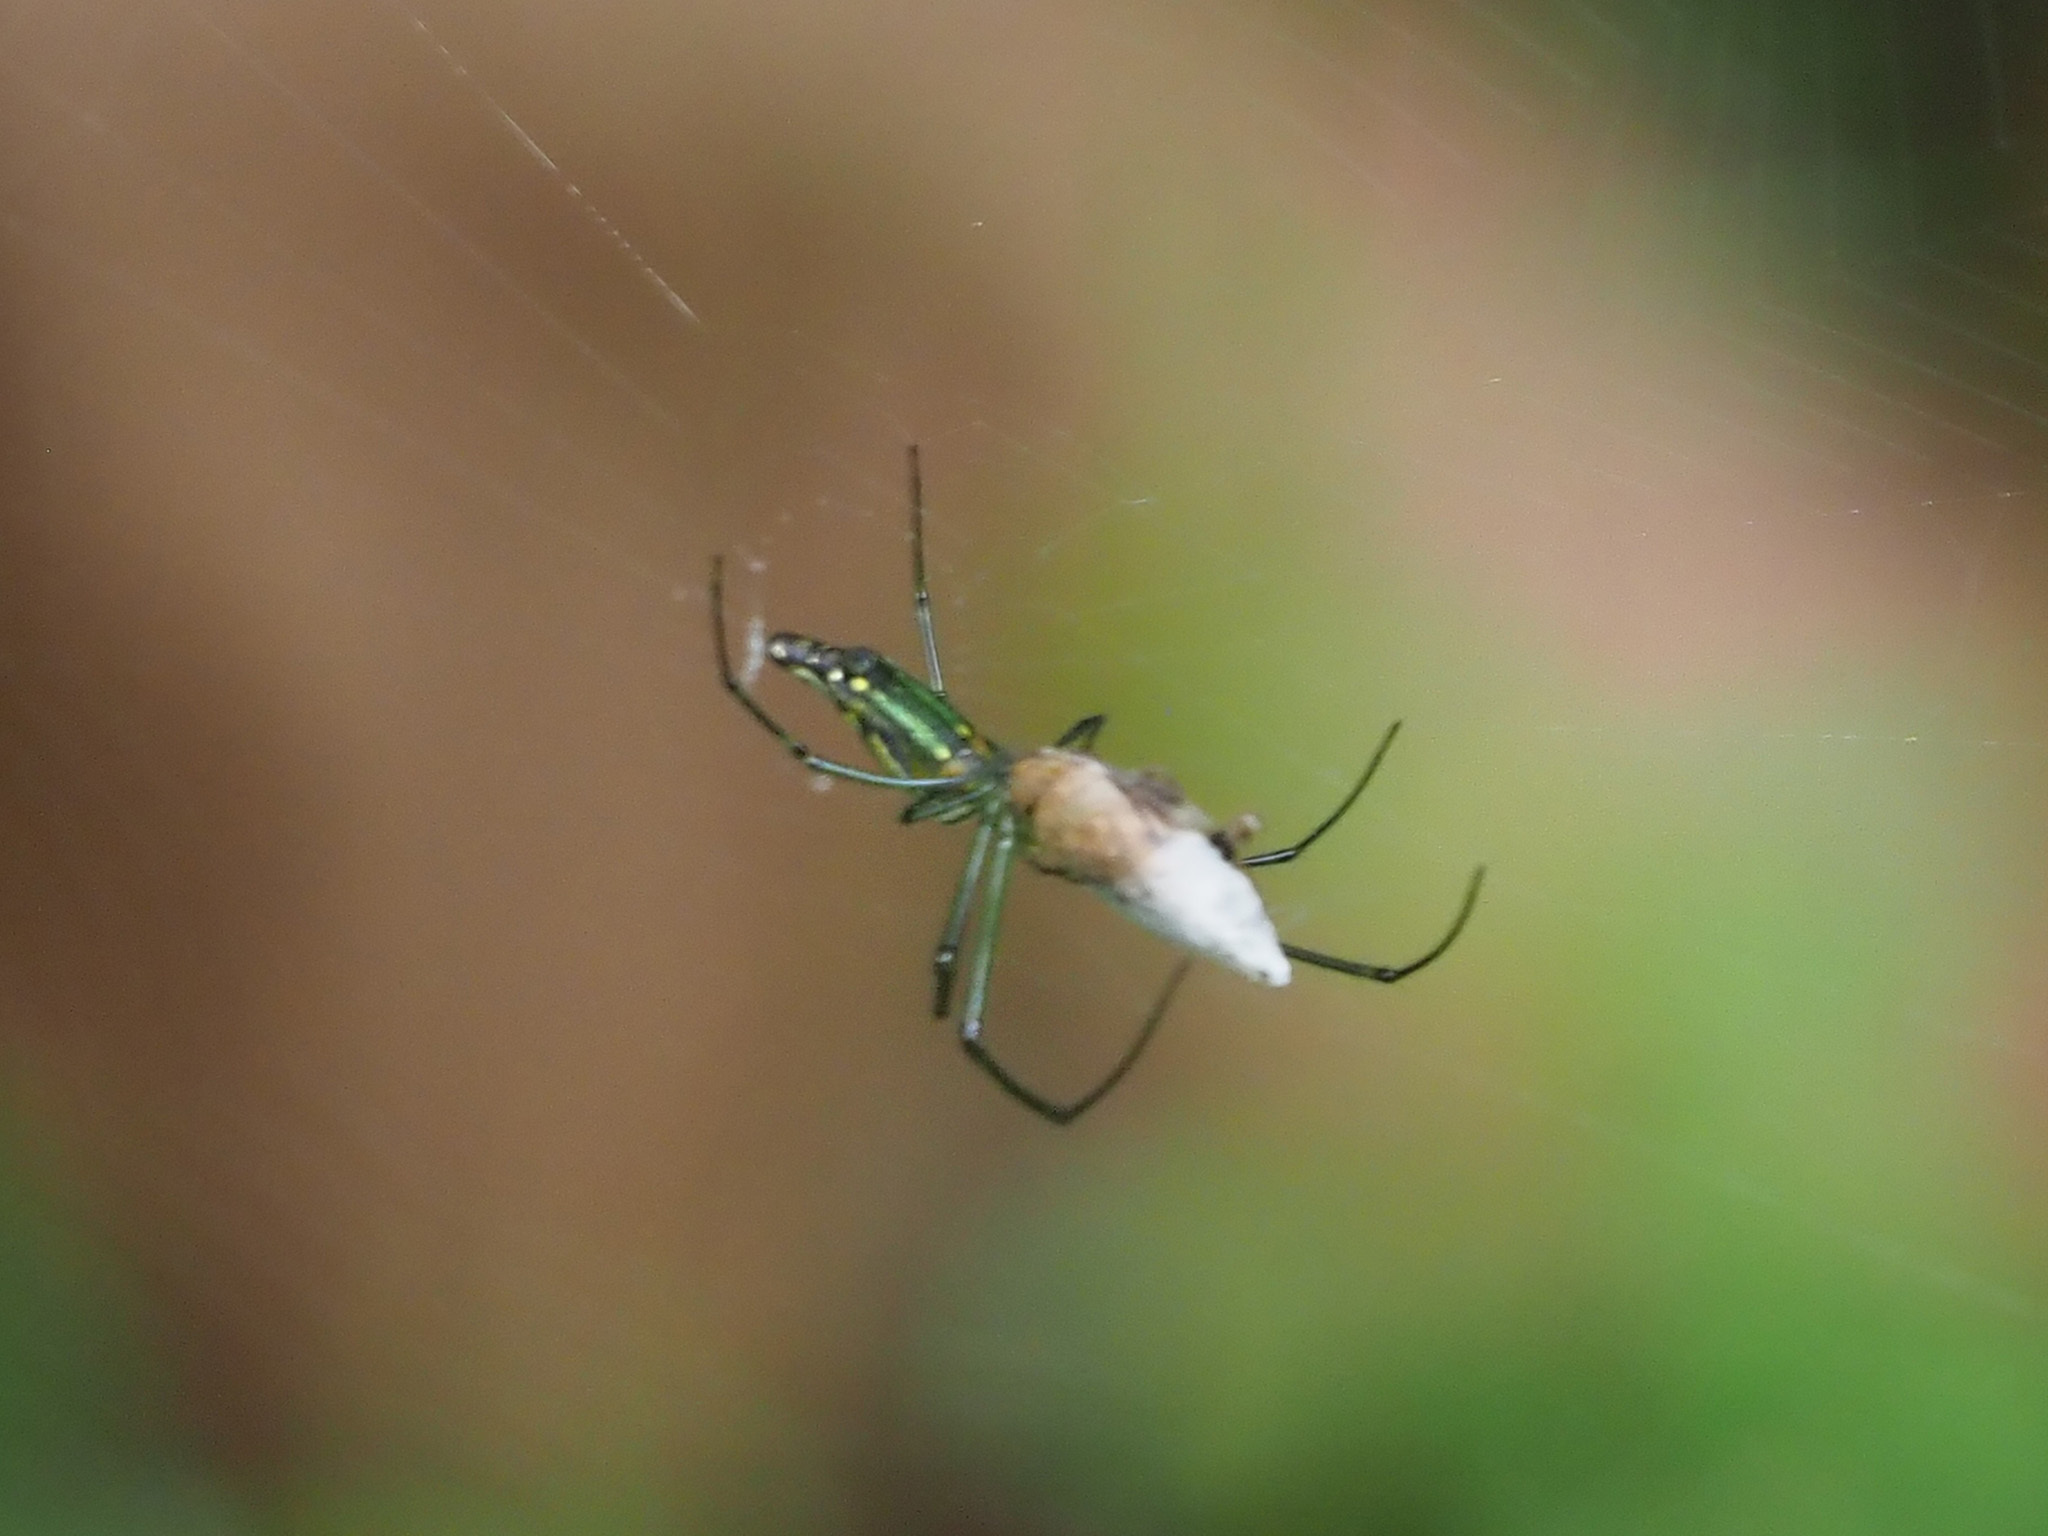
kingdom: Animalia
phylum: Arthropoda
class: Arachnida
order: Araneae
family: Tetragnathidae
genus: Leucauge
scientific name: Leucauge decorata
